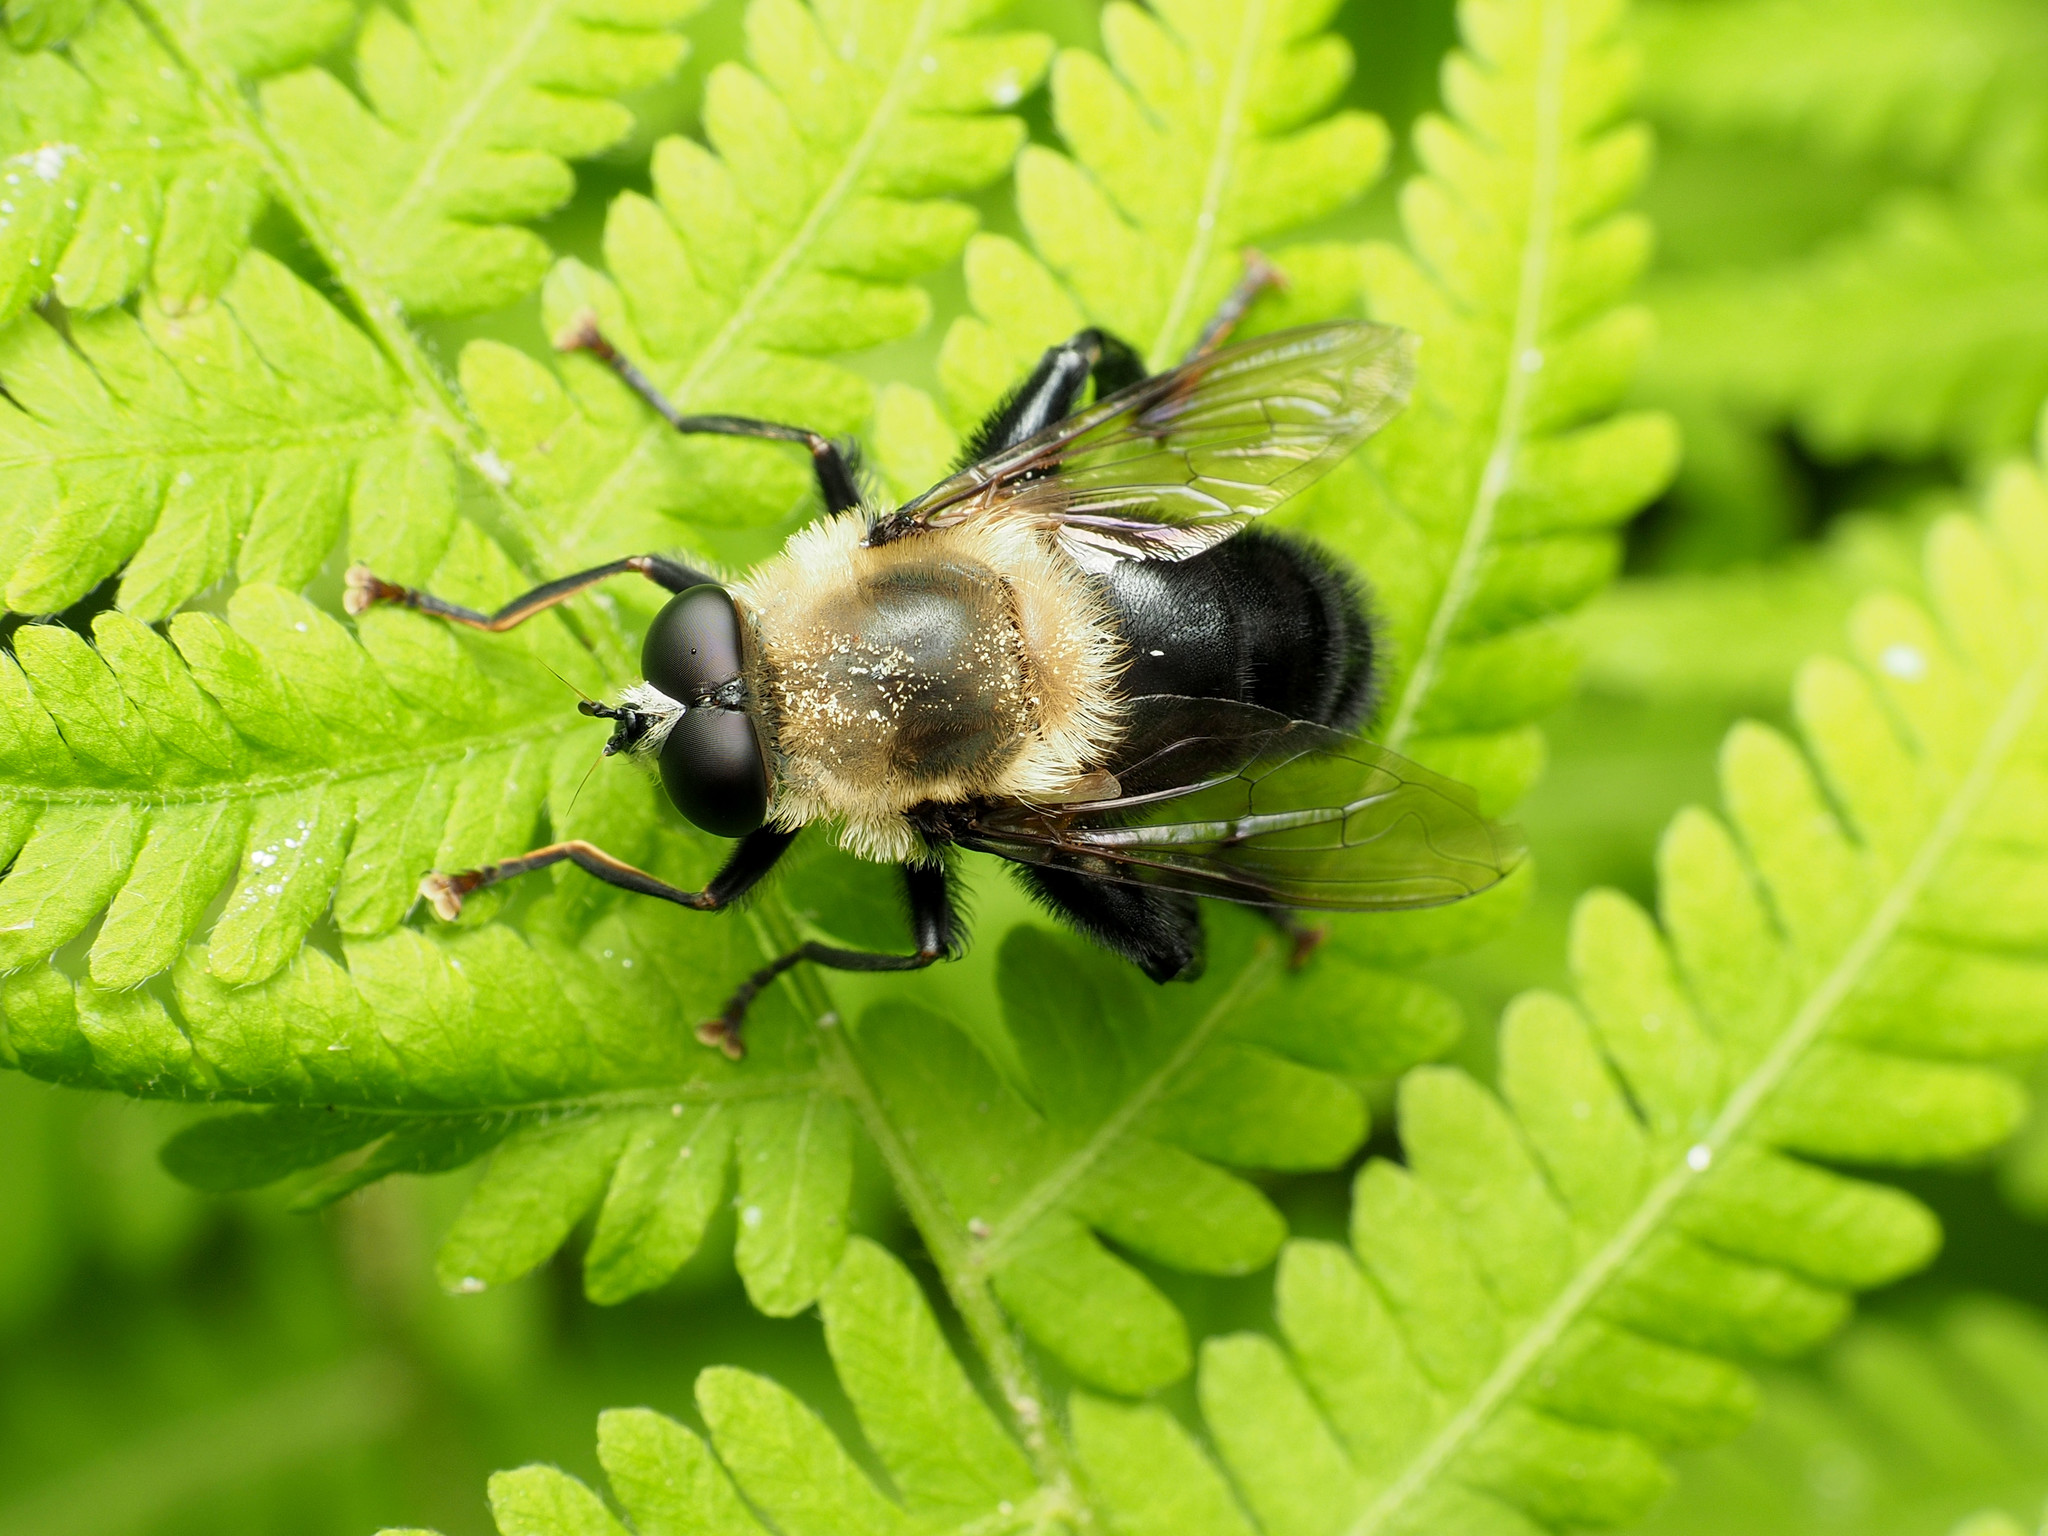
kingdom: Animalia
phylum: Arthropoda
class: Insecta
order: Diptera
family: Syrphidae
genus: Imatisma
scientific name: Imatisma bautias
